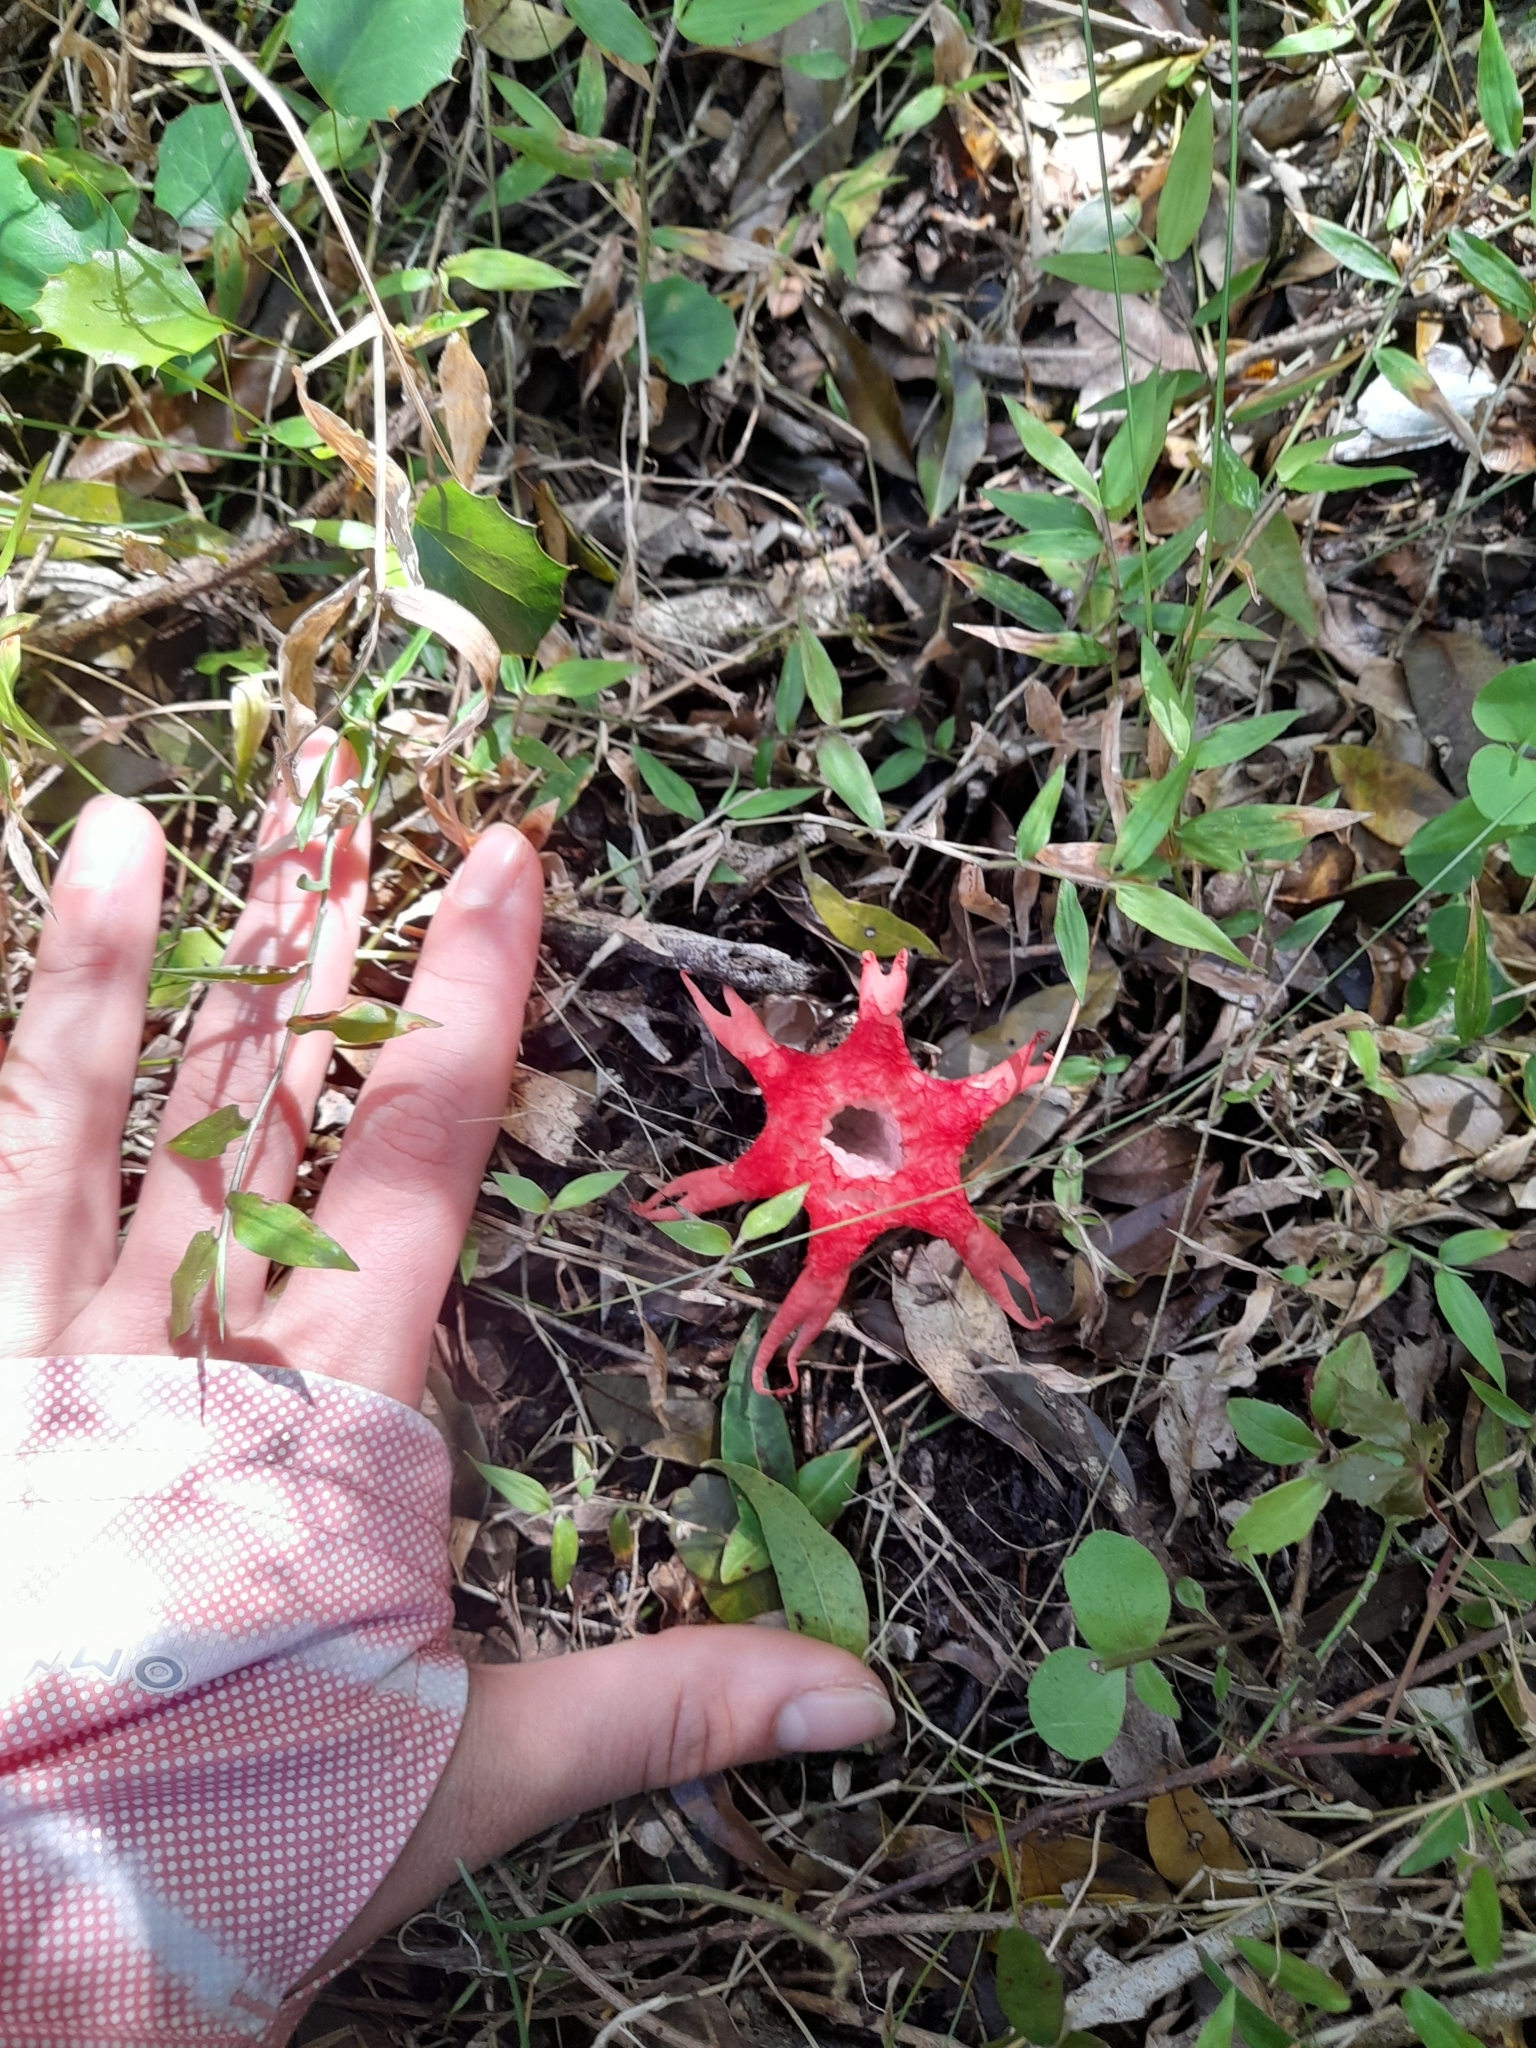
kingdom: Fungi
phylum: Basidiomycota
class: Agaricomycetes
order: Phallales
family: Phallaceae
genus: Aseroe
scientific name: Aseroe rubra
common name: Starfish fungus
